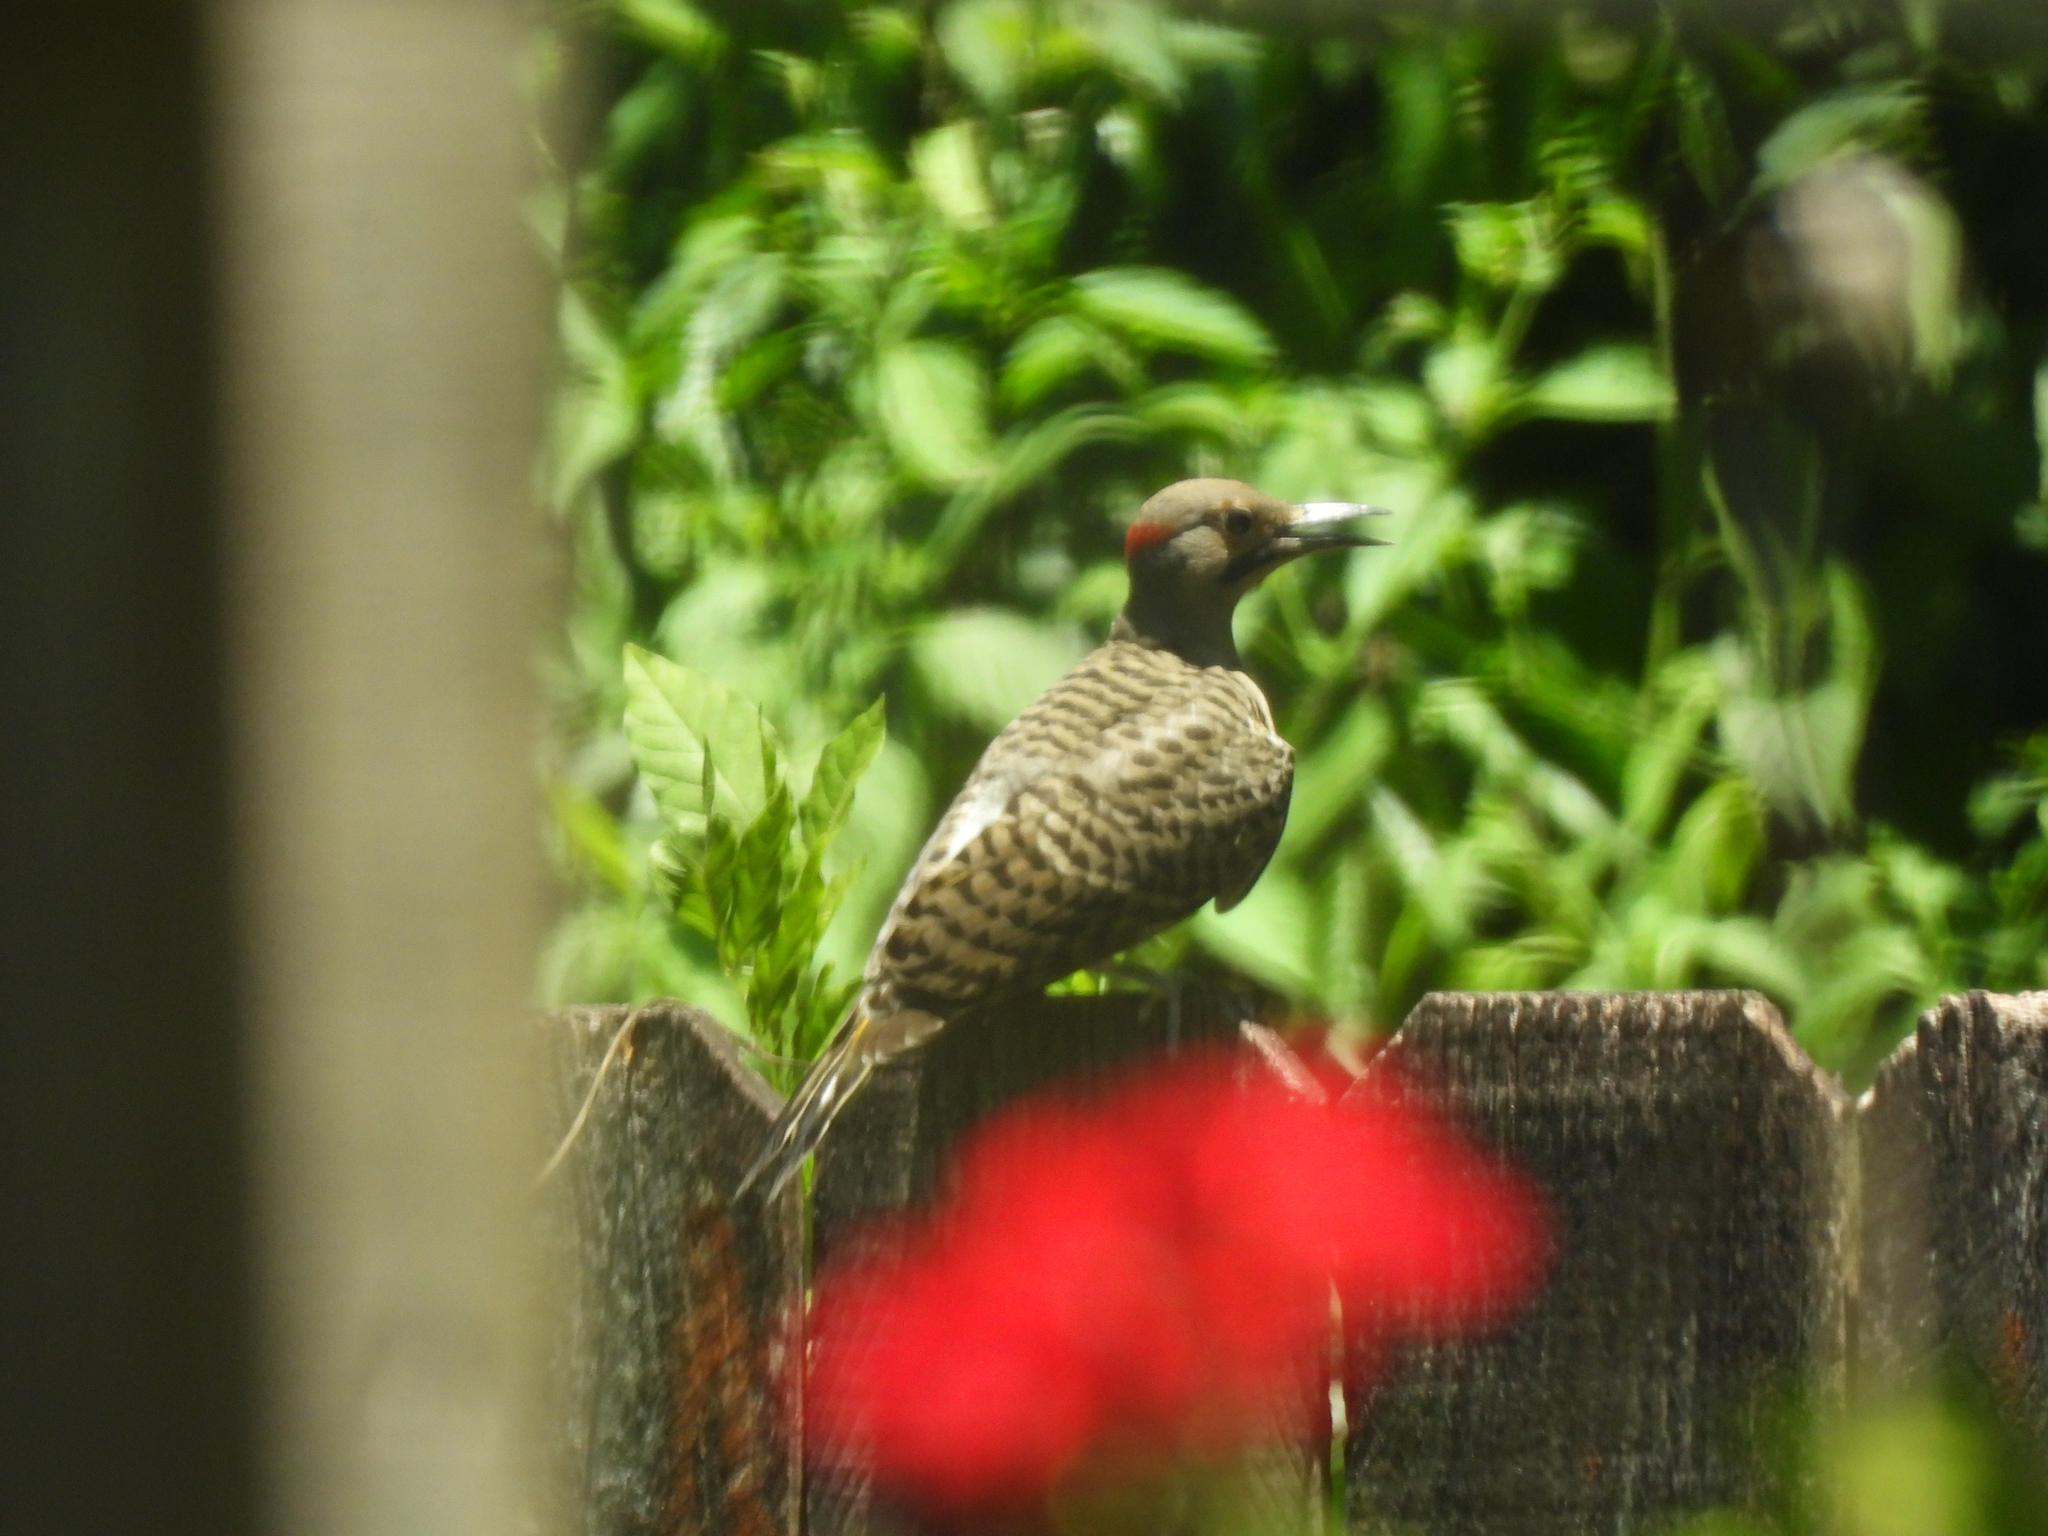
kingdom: Animalia
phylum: Chordata
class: Aves
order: Piciformes
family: Picidae
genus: Colaptes
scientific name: Colaptes auratus
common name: Northern flicker
